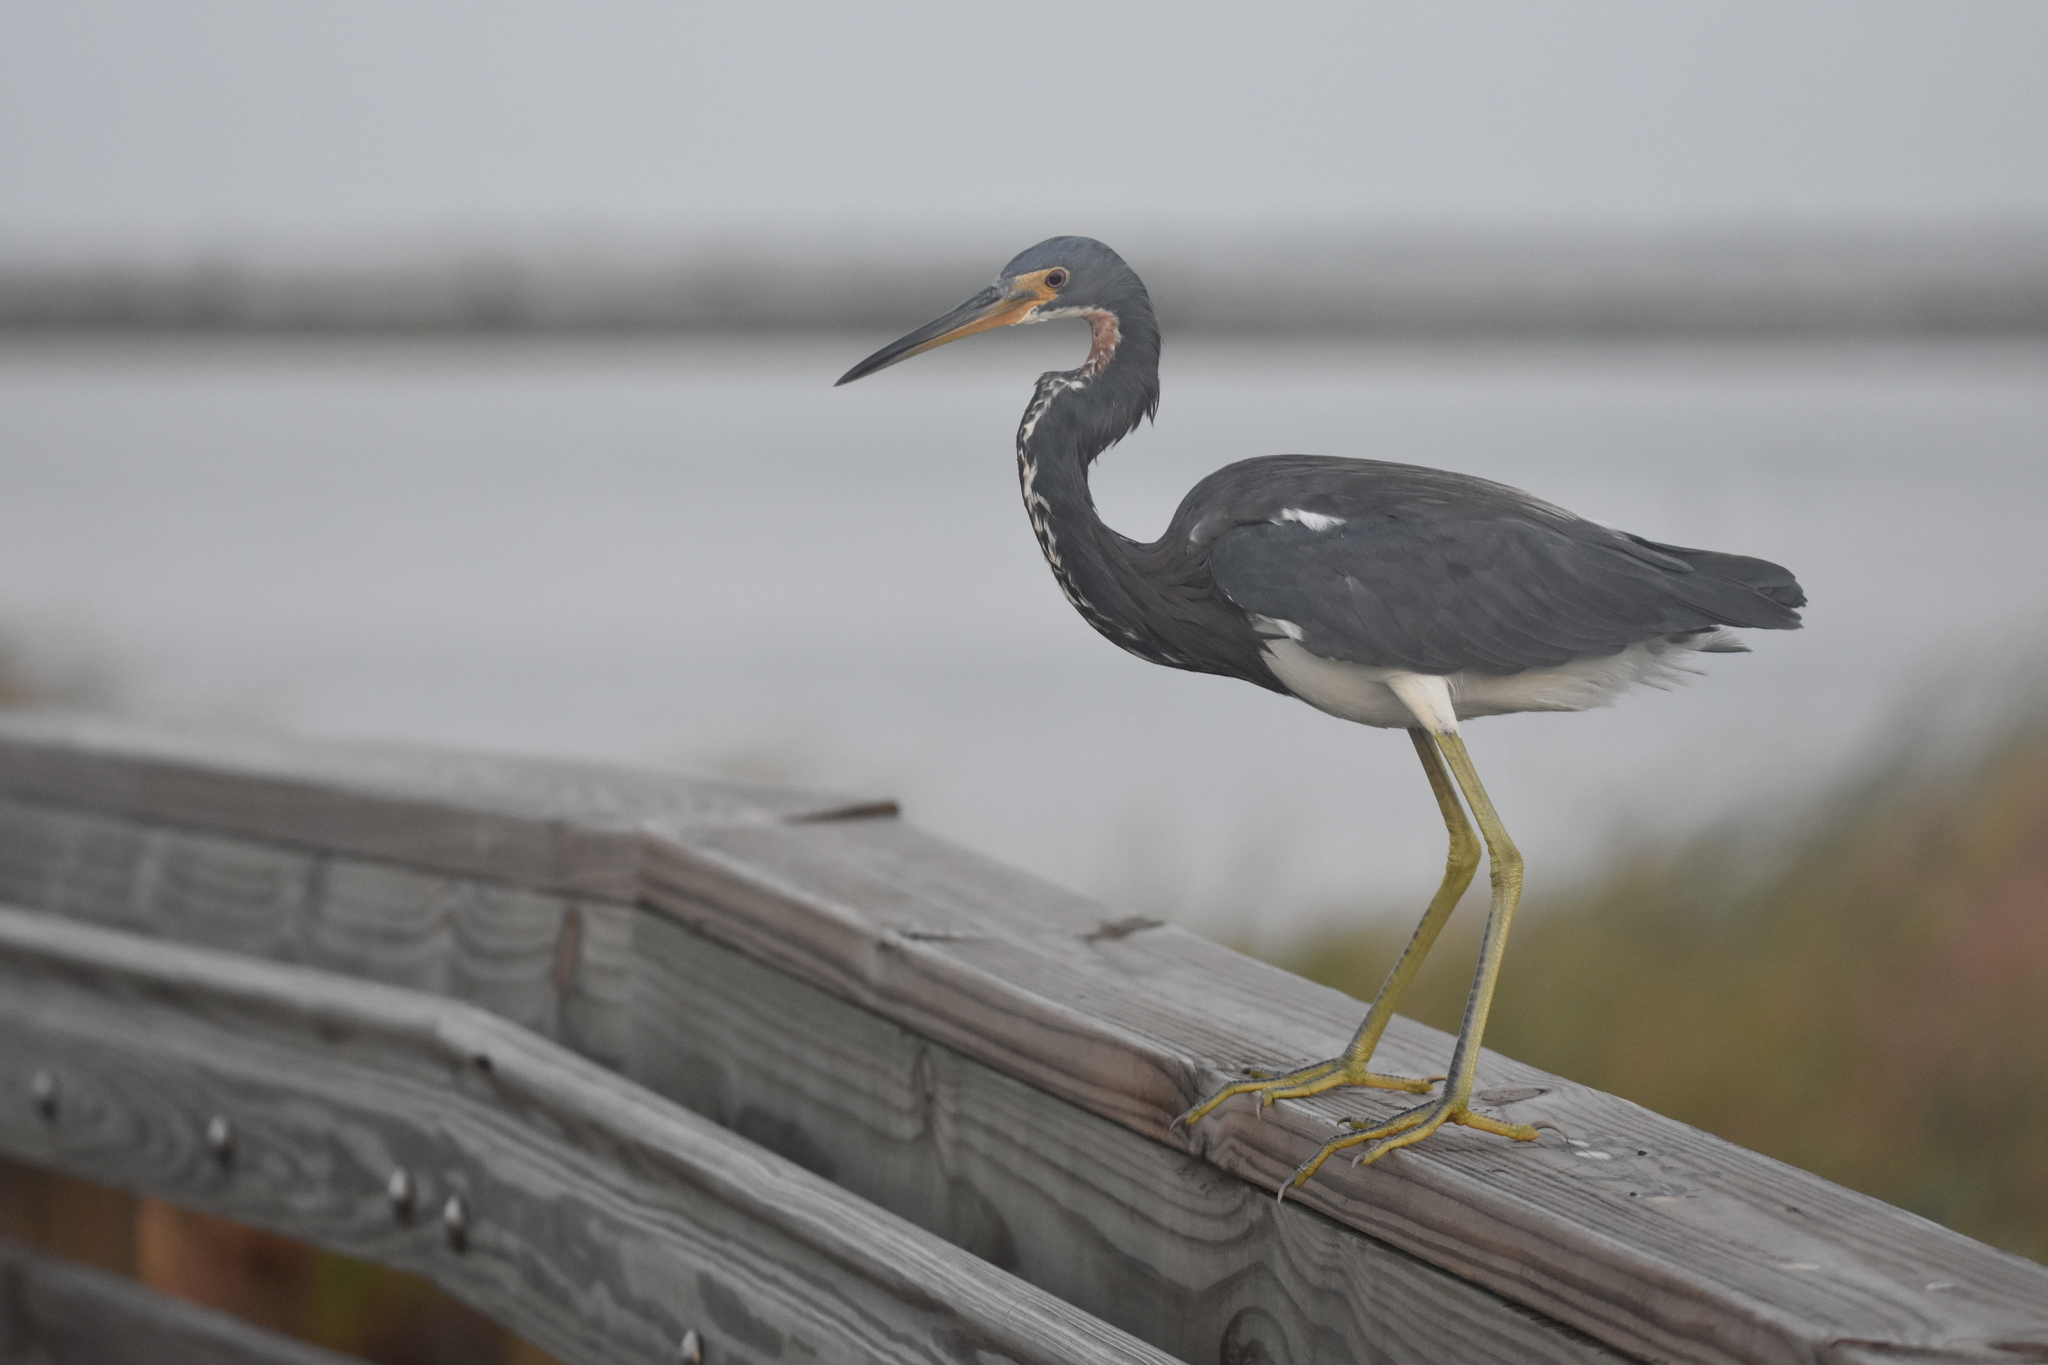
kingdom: Animalia
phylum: Chordata
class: Aves
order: Pelecaniformes
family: Ardeidae
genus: Egretta
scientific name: Egretta tricolor
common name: Tricolored heron
